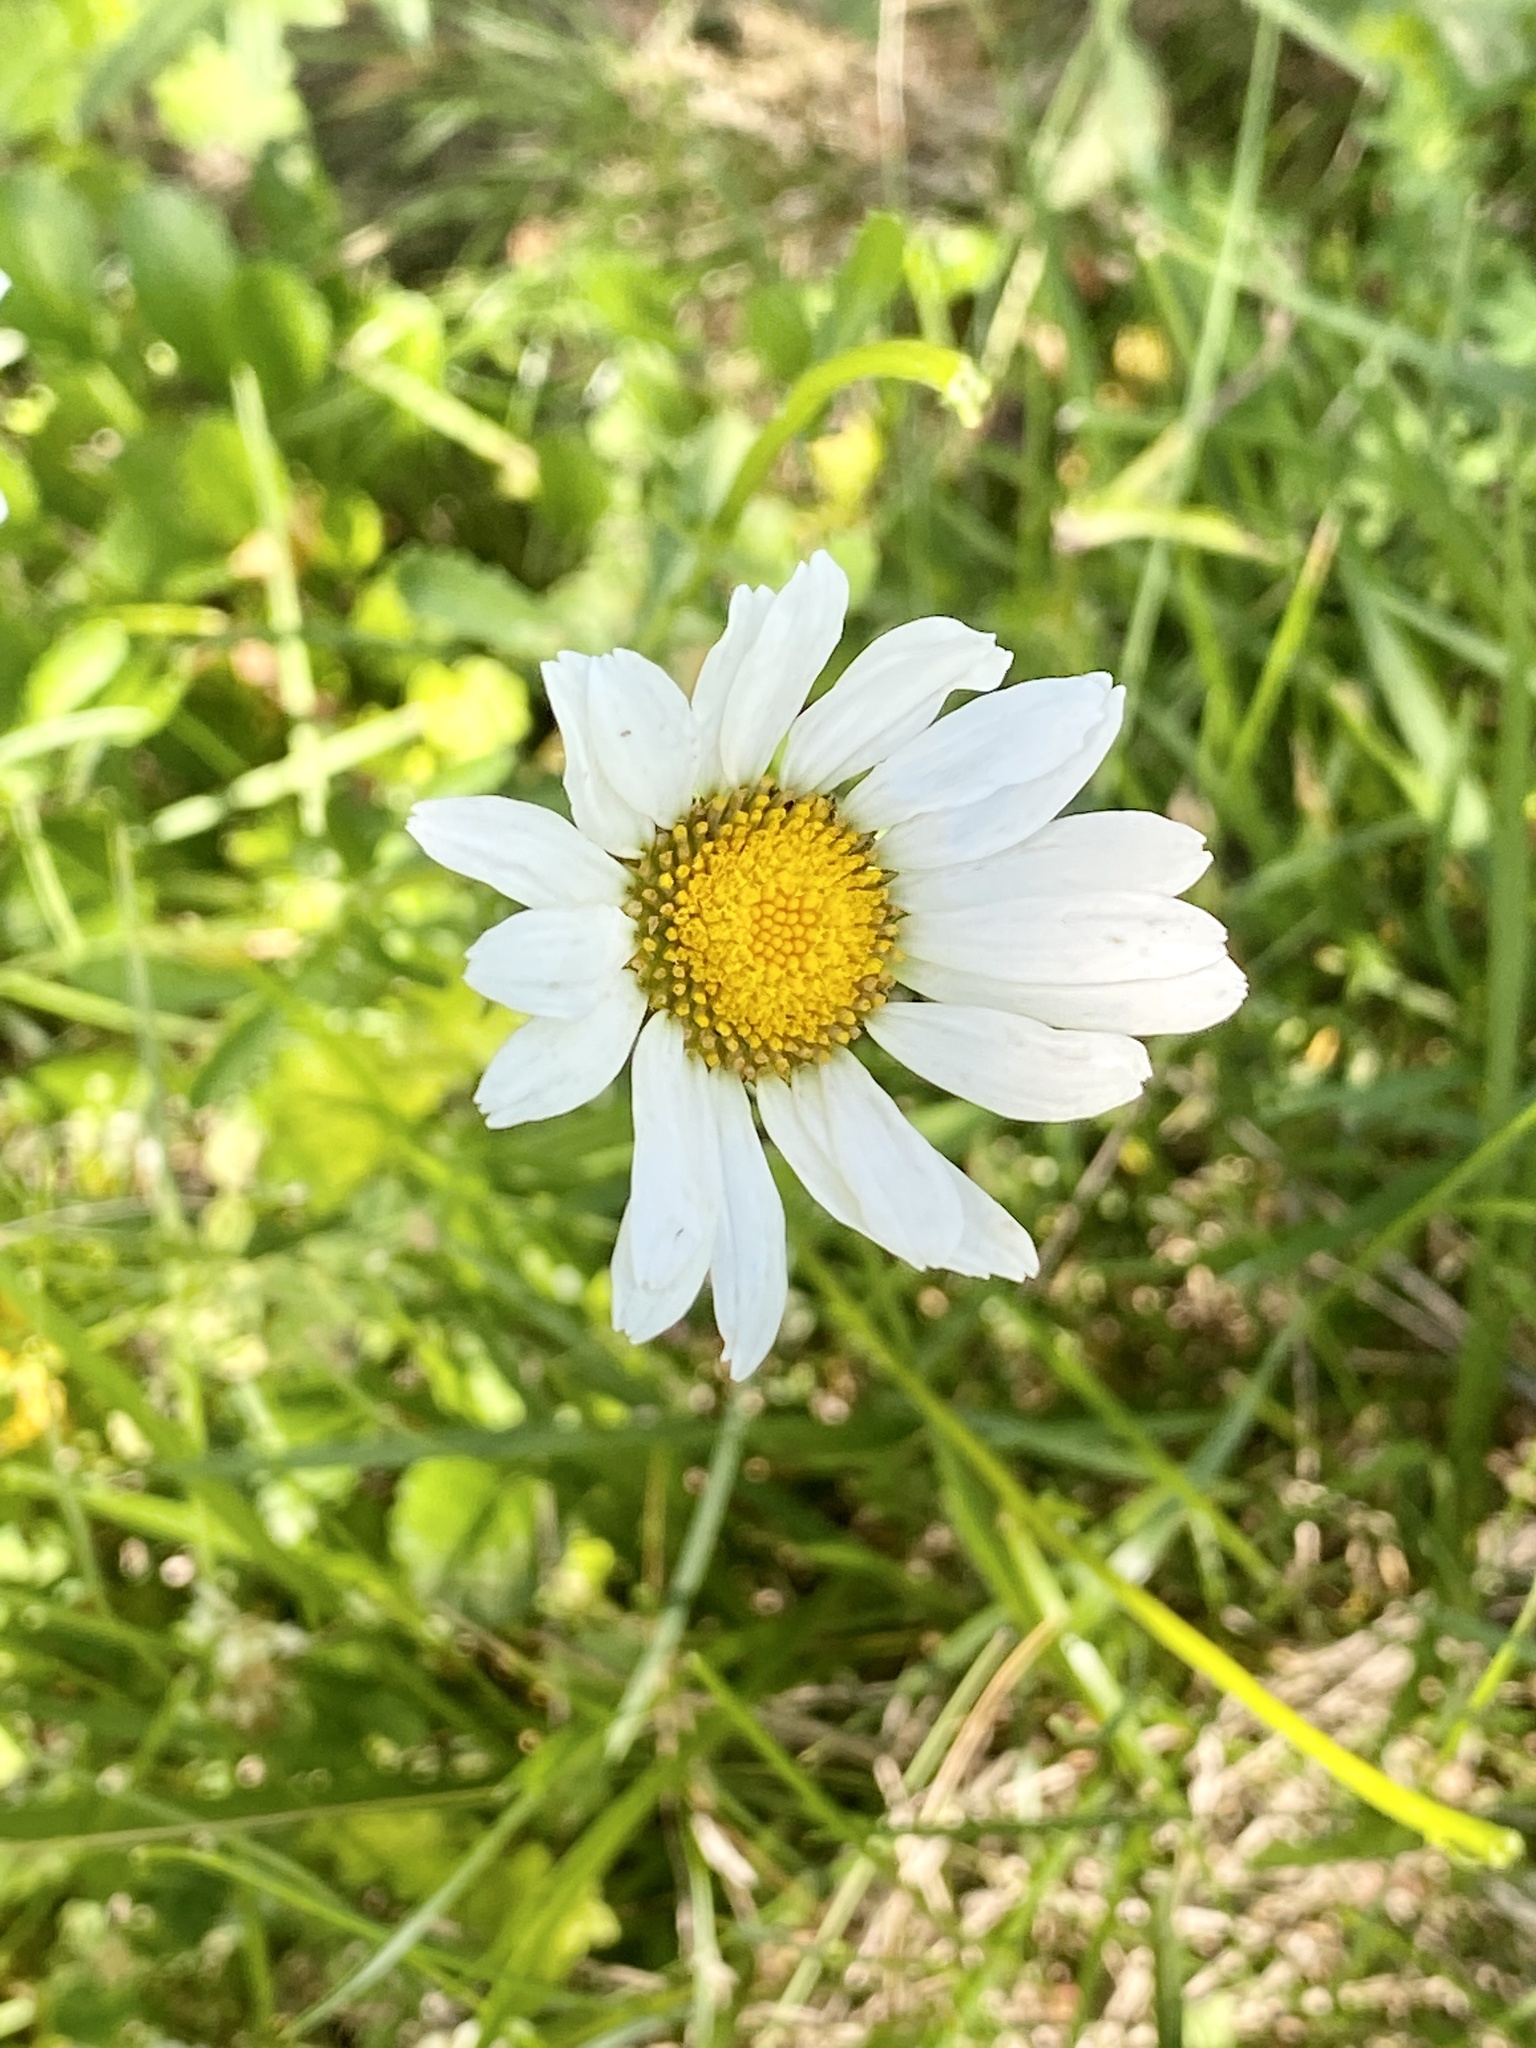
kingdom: Plantae
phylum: Tracheophyta
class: Magnoliopsida
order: Asterales
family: Asteraceae
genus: Leucanthemum
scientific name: Leucanthemum vulgare
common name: Oxeye daisy
